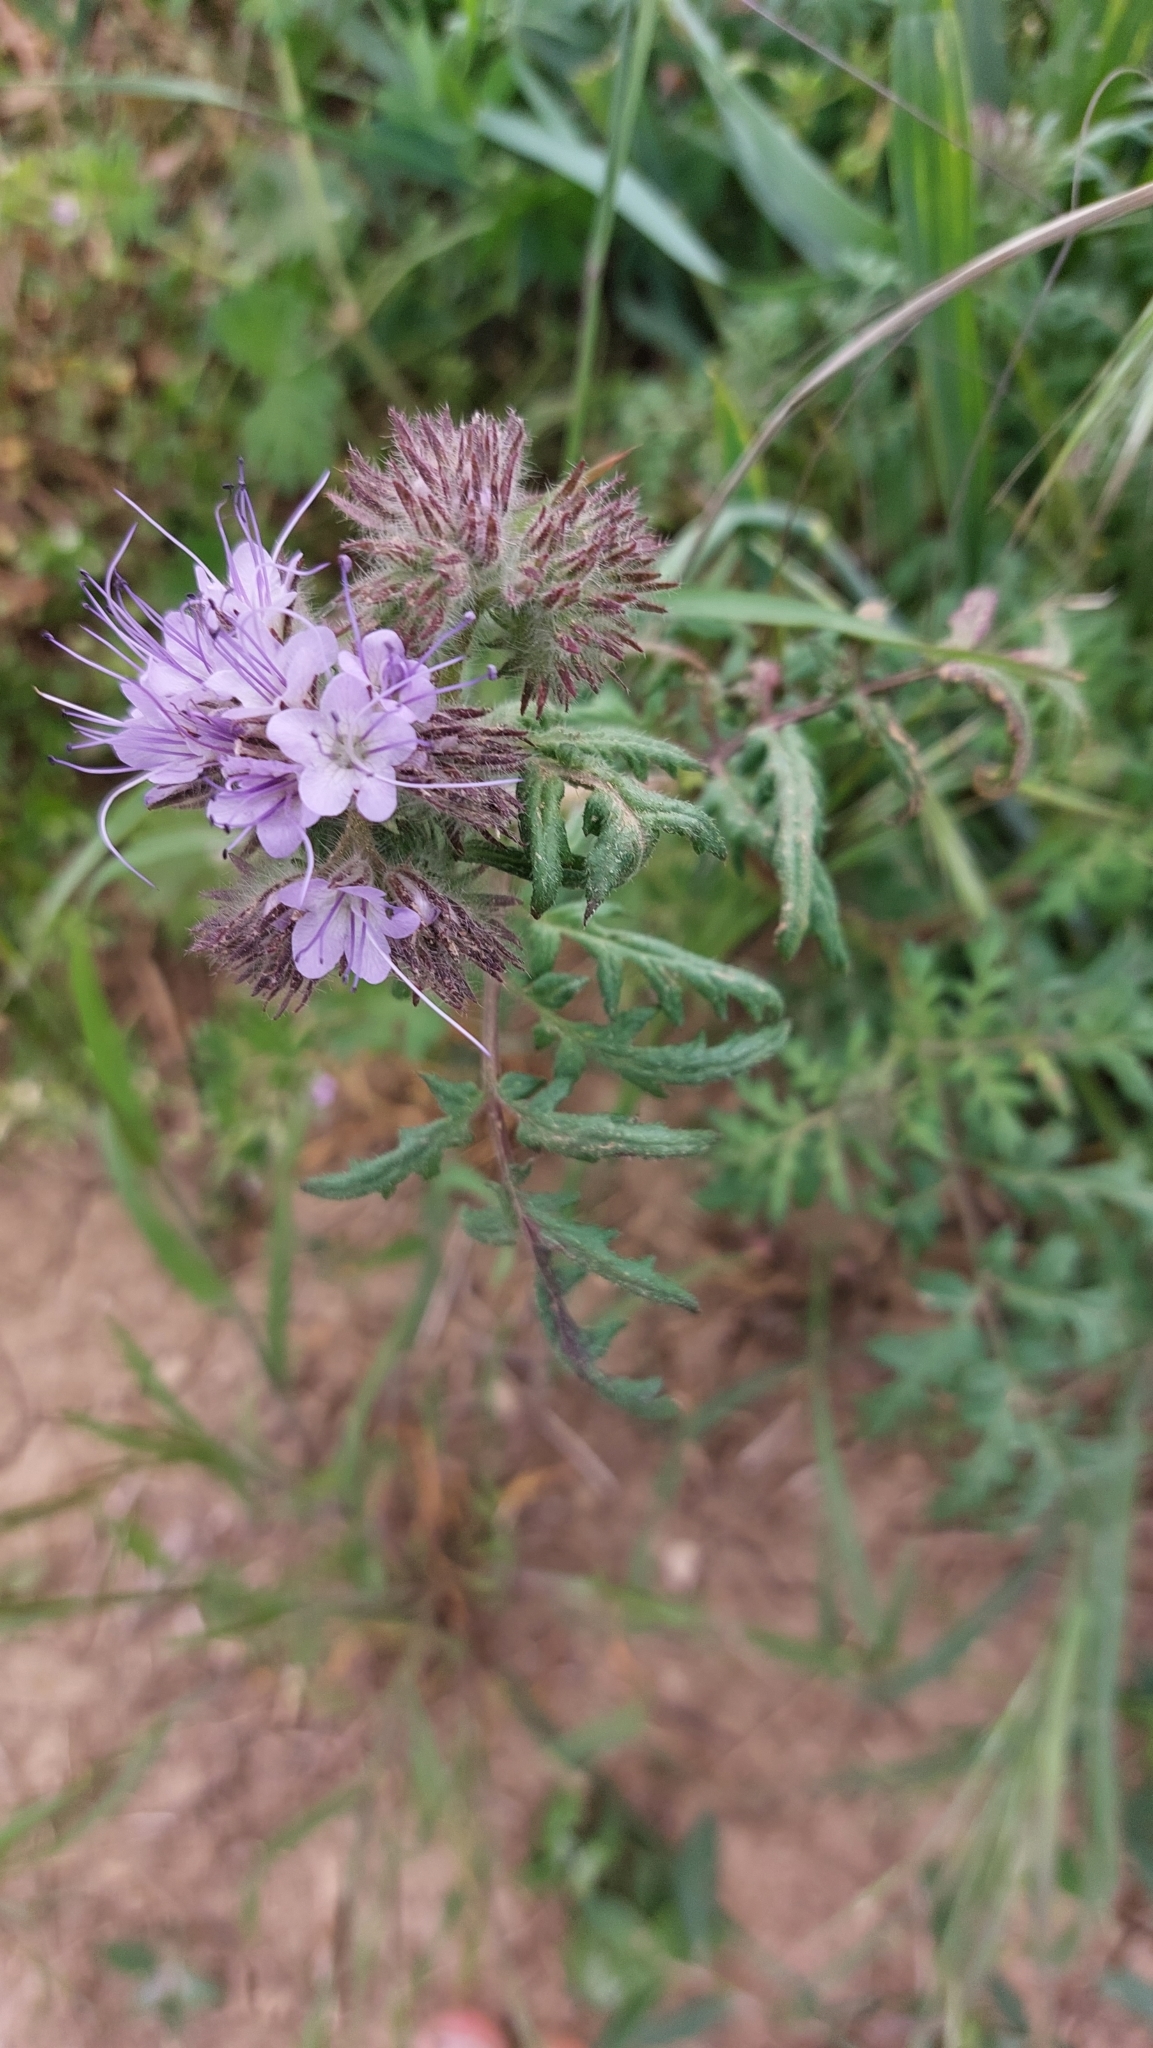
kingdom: Plantae
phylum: Tracheophyta
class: Magnoliopsida
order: Boraginales
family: Hydrophyllaceae
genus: Phacelia
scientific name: Phacelia tanacetifolia
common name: Phacelia
